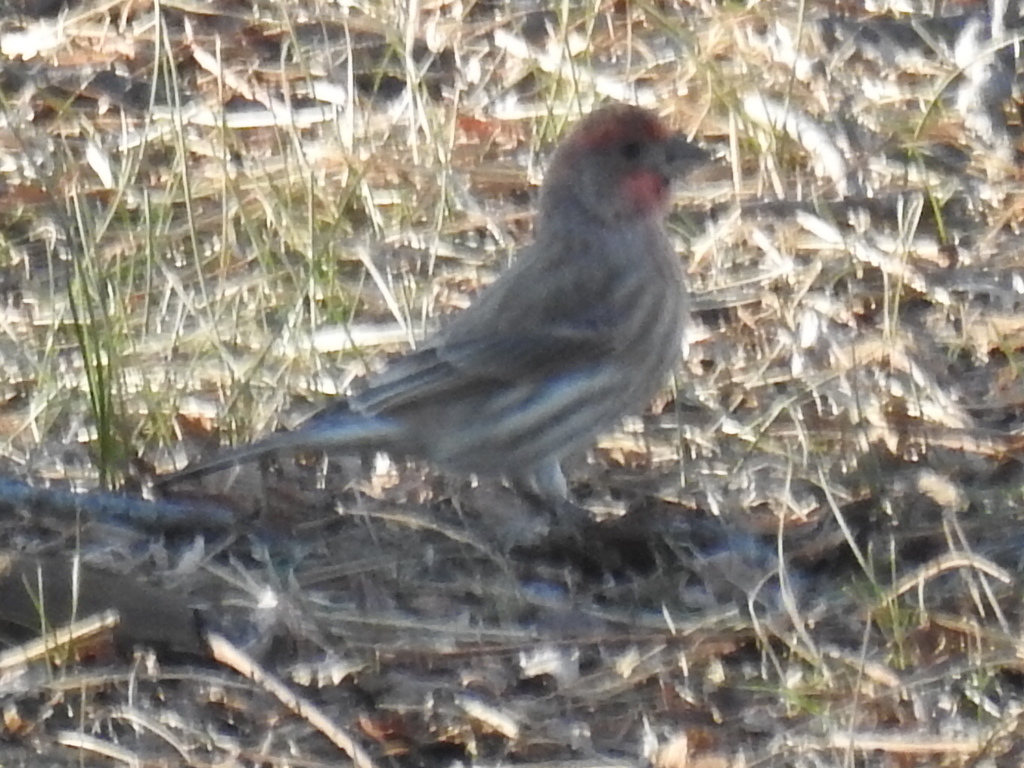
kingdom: Animalia
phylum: Chordata
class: Aves
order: Passeriformes
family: Fringillidae
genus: Haemorhous
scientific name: Haemorhous mexicanus
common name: House finch
